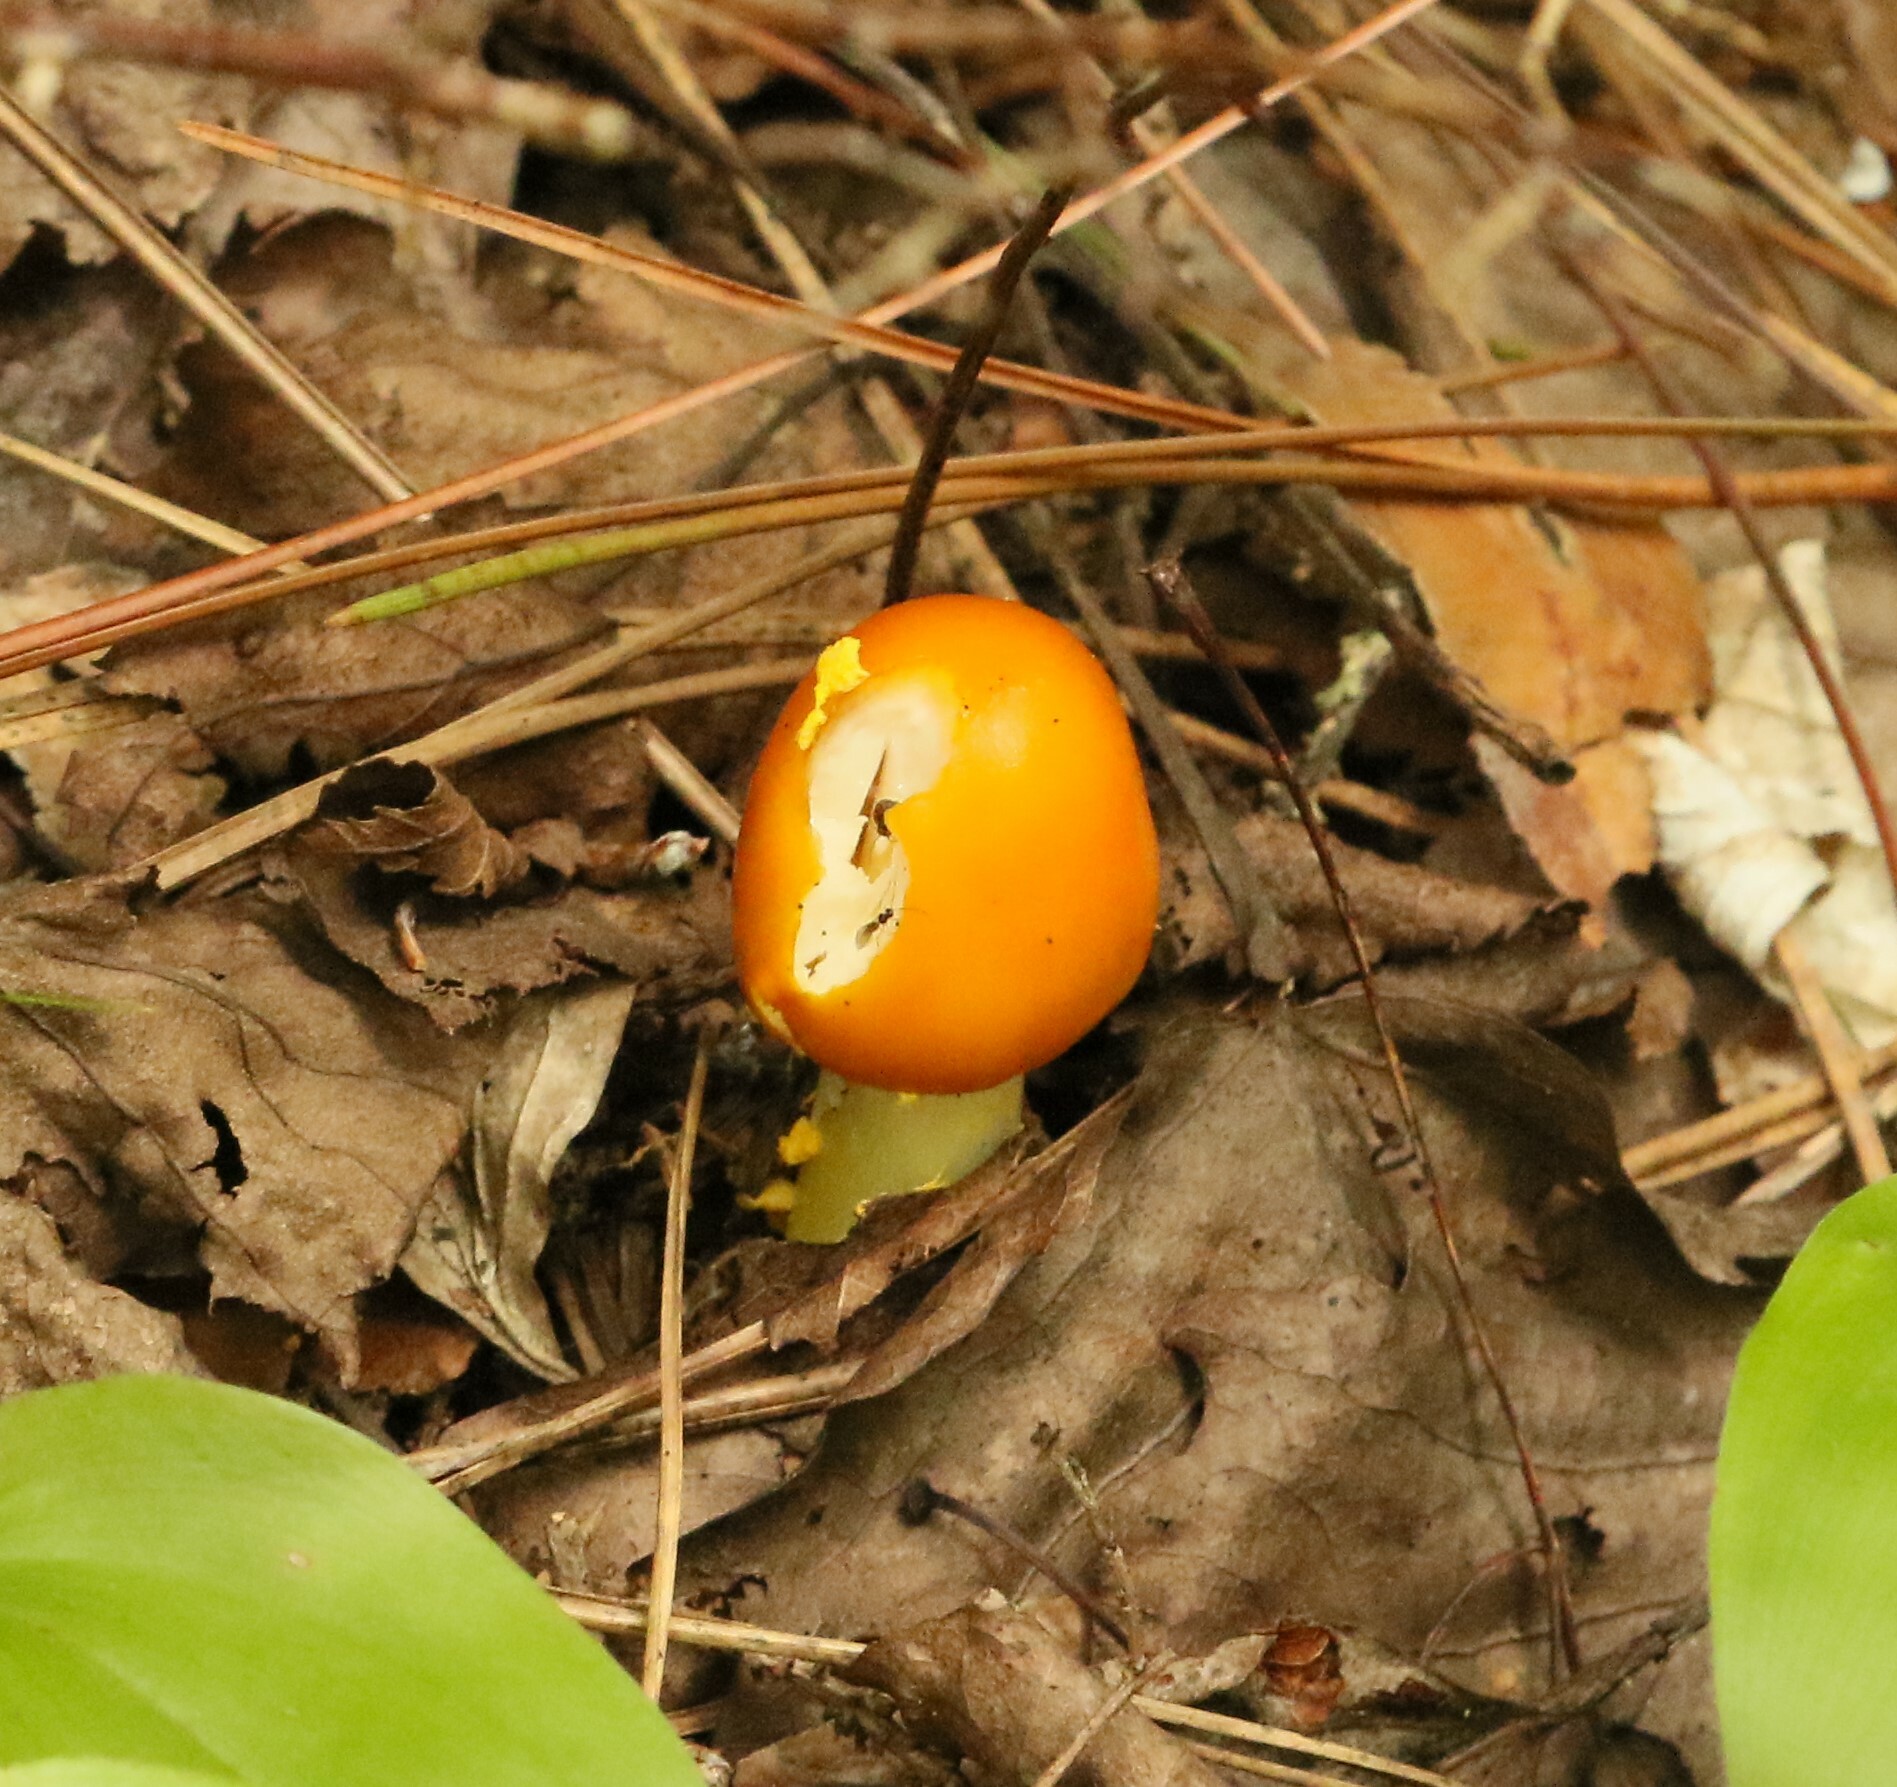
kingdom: Fungi
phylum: Basidiomycota
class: Agaricomycetes
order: Agaricales
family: Amanitaceae
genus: Amanita
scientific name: Amanita flavoconia
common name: Yellow patches
